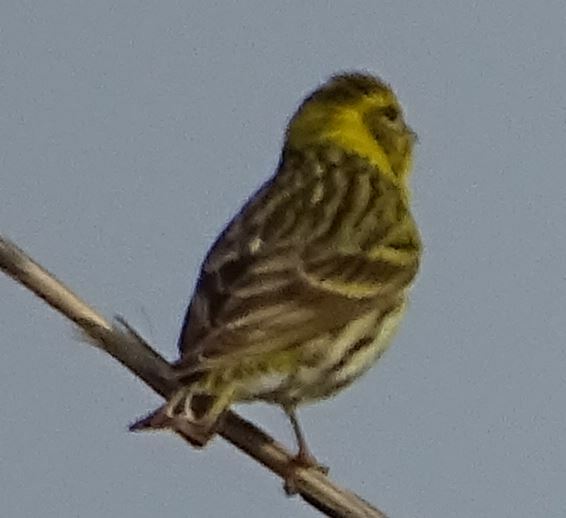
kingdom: Animalia
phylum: Chordata
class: Aves
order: Passeriformes
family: Fringillidae
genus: Serinus
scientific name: Serinus serinus
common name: European serin
